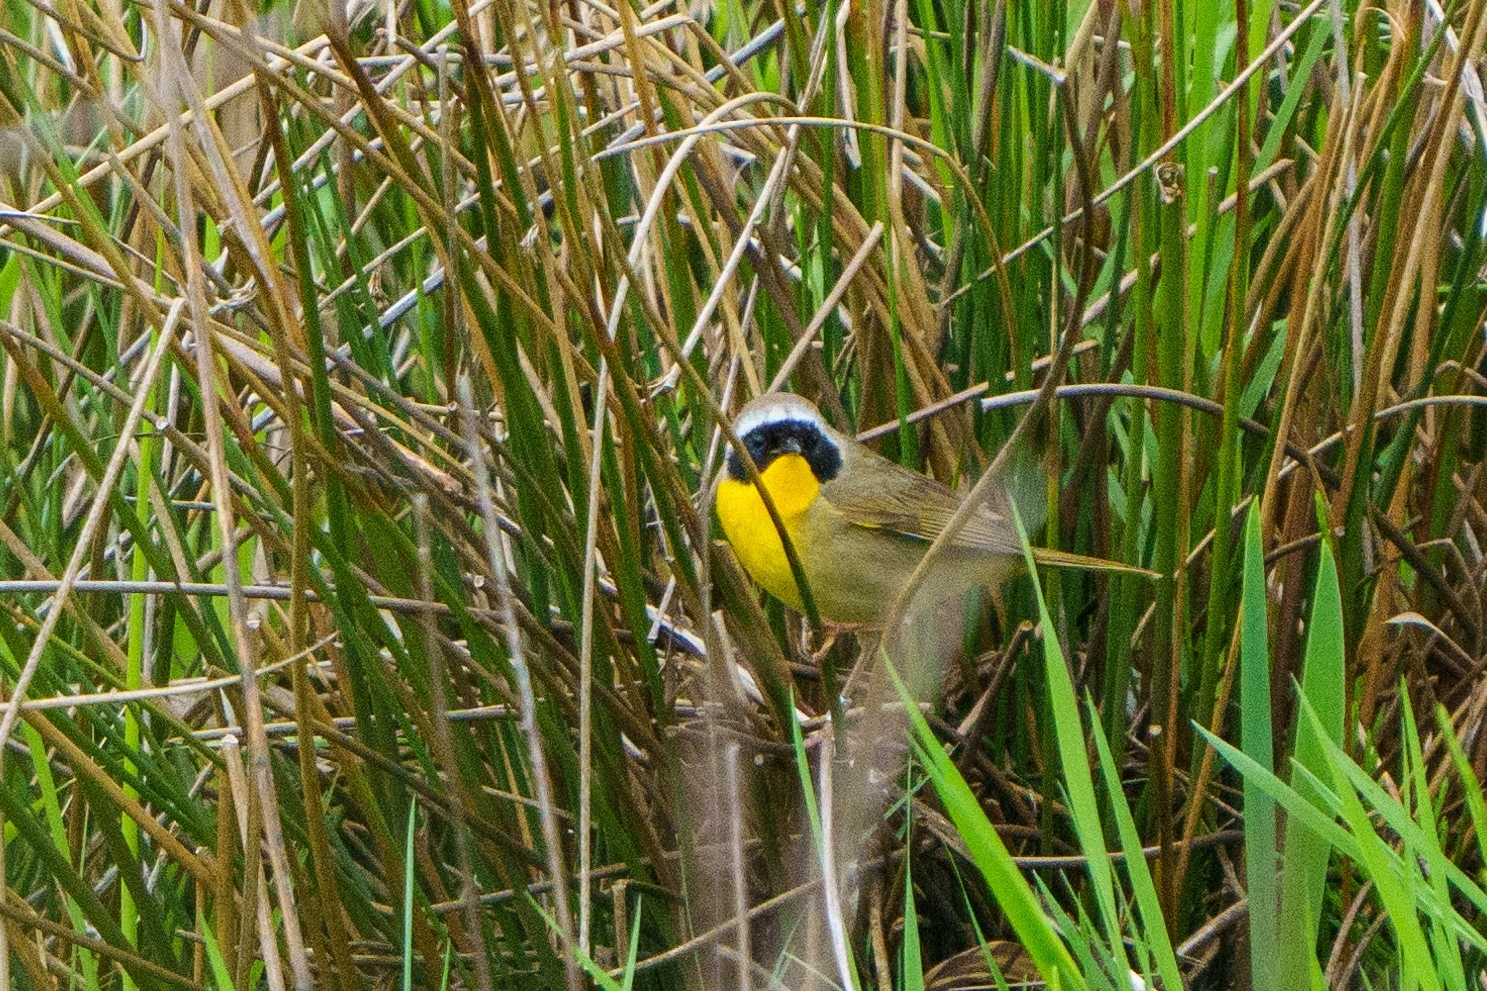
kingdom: Animalia
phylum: Chordata
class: Aves
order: Passeriformes
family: Parulidae
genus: Geothlypis
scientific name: Geothlypis trichas
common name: Common yellowthroat
